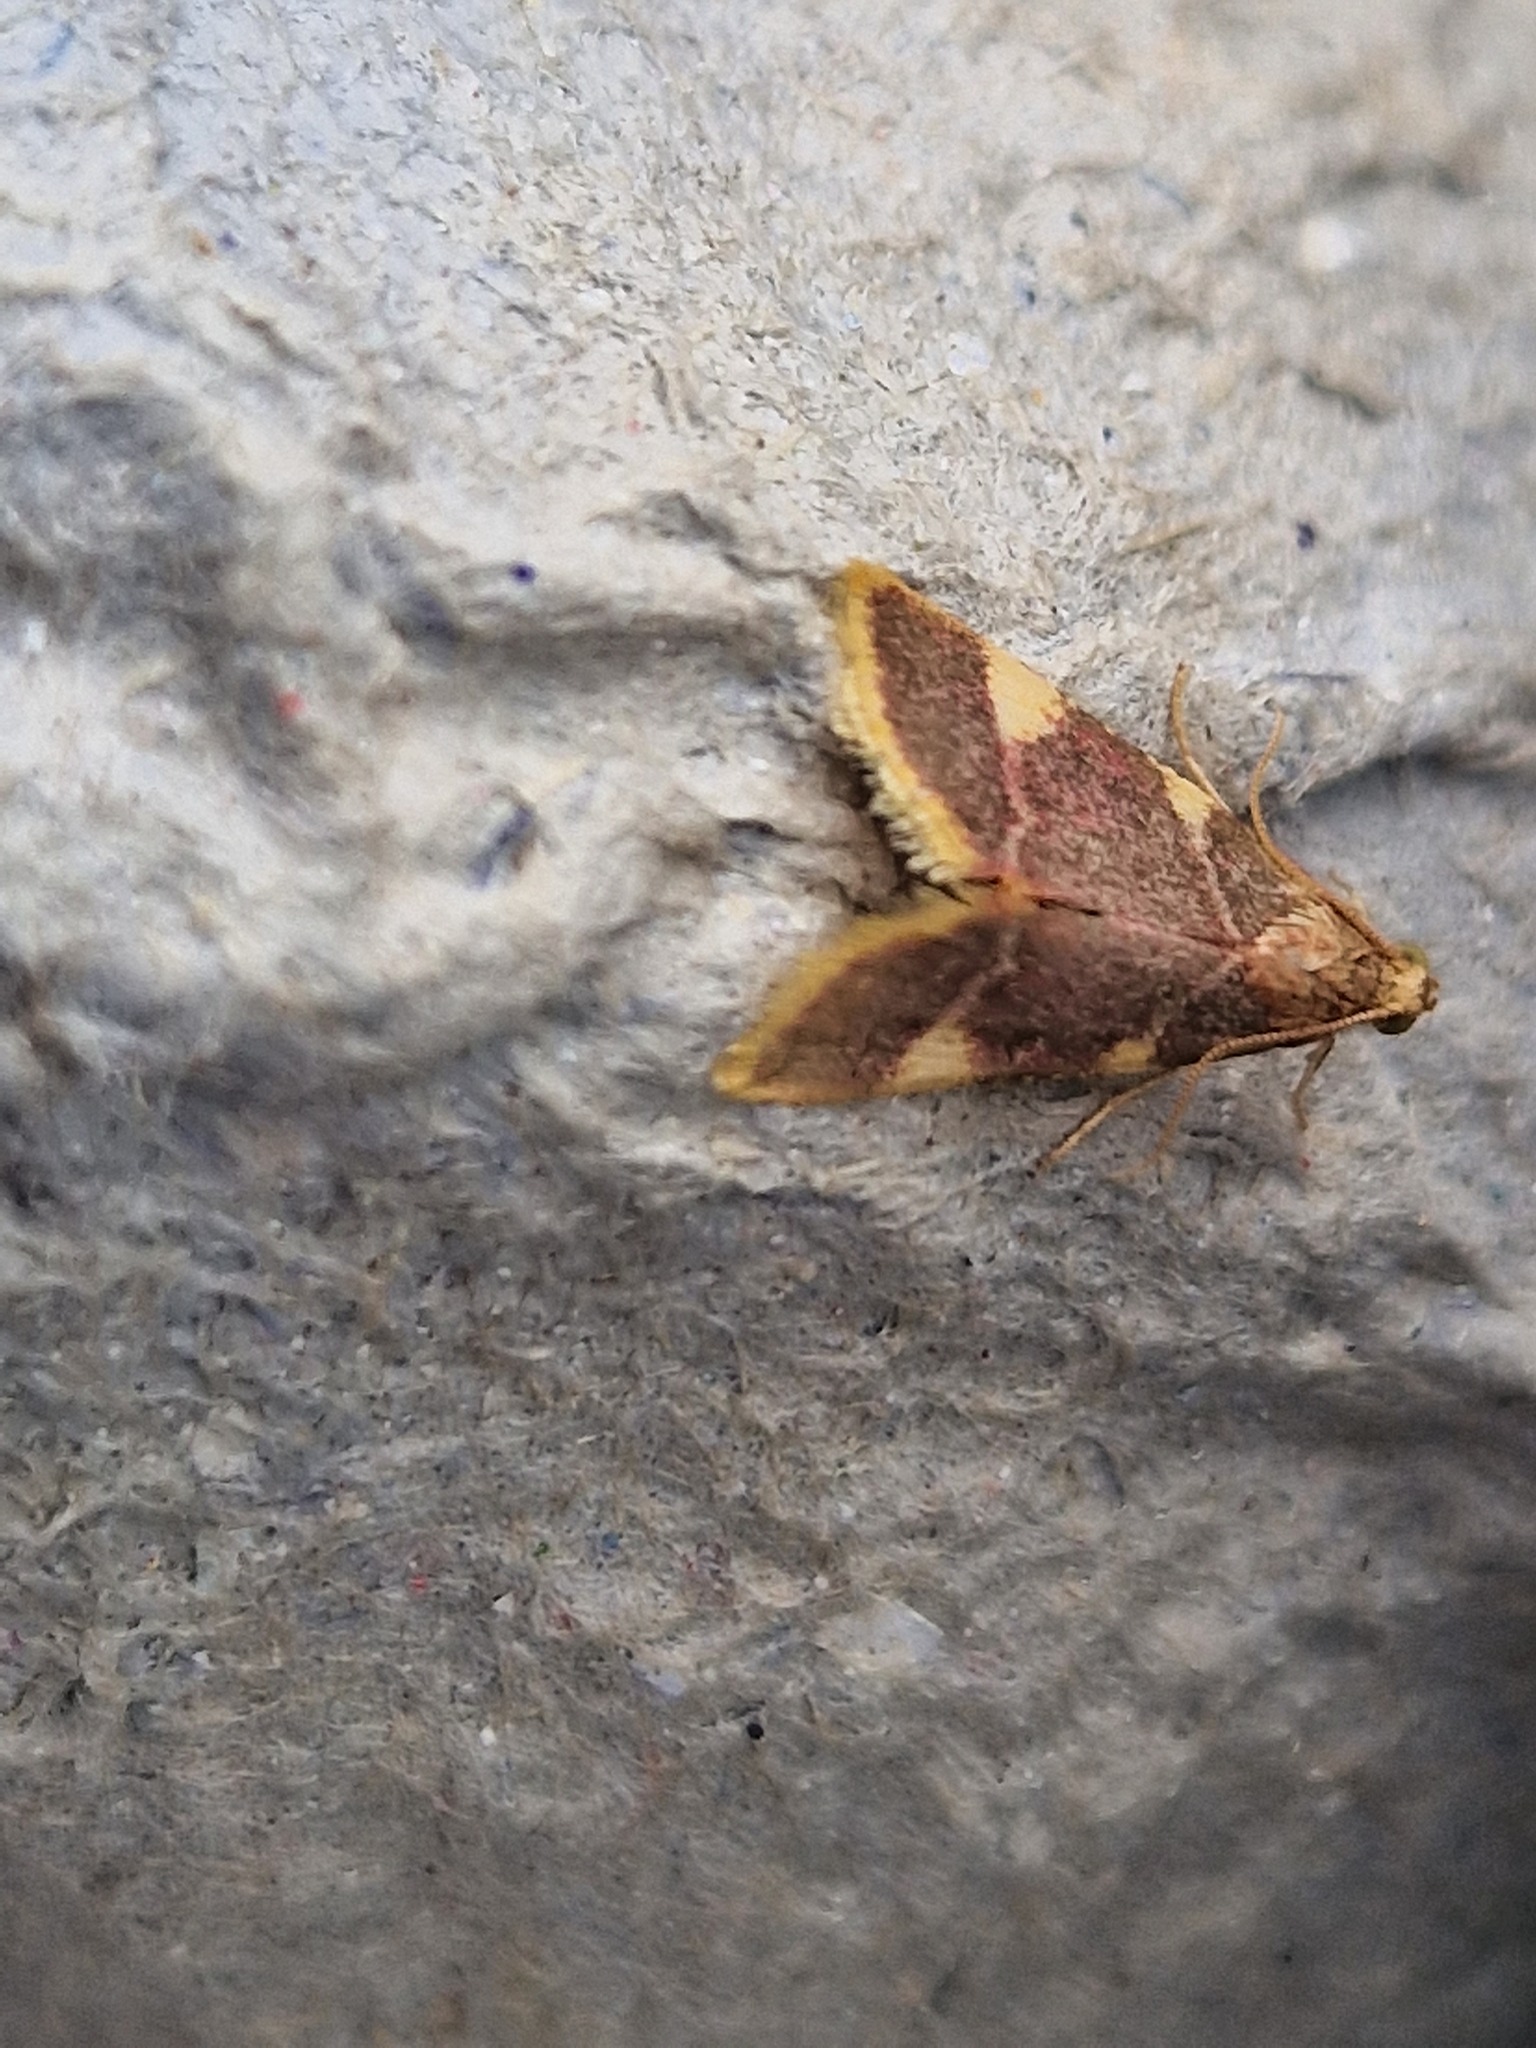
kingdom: Animalia
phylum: Arthropoda
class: Insecta
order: Lepidoptera
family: Pyralidae
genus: Hypsopygia
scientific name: Hypsopygia costalis
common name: Gold triangle
